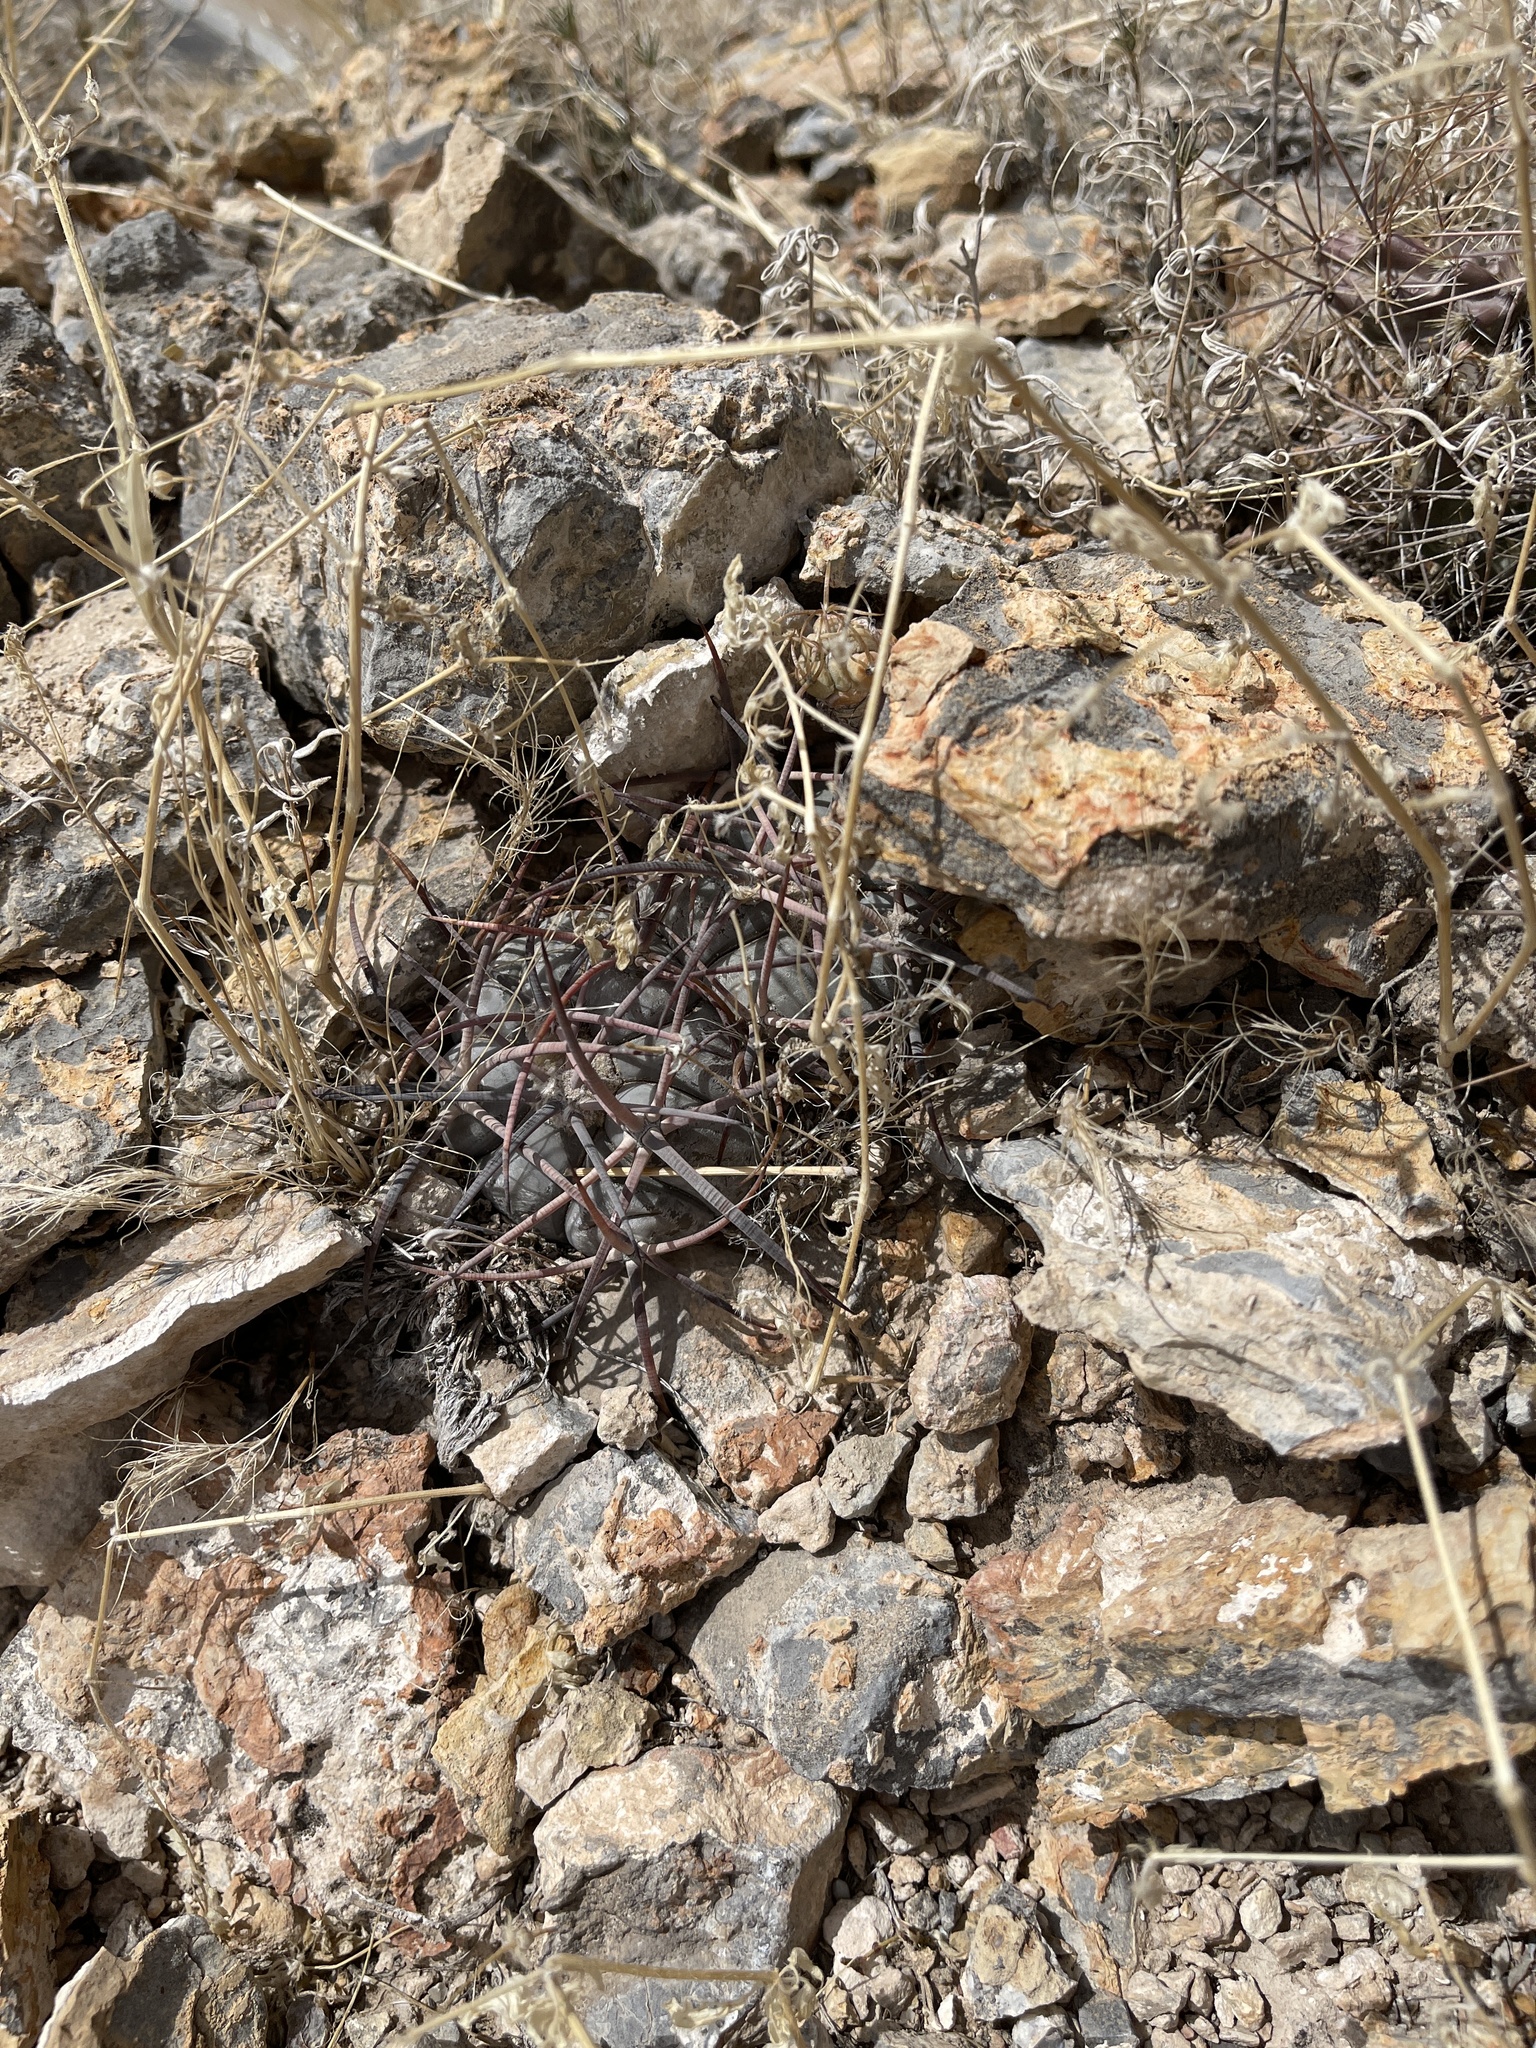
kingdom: Plantae
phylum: Tracheophyta
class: Magnoliopsida
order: Caryophyllales
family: Cactaceae
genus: Echinocactus
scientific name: Echinocactus horizonthalonius
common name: Devilshead
